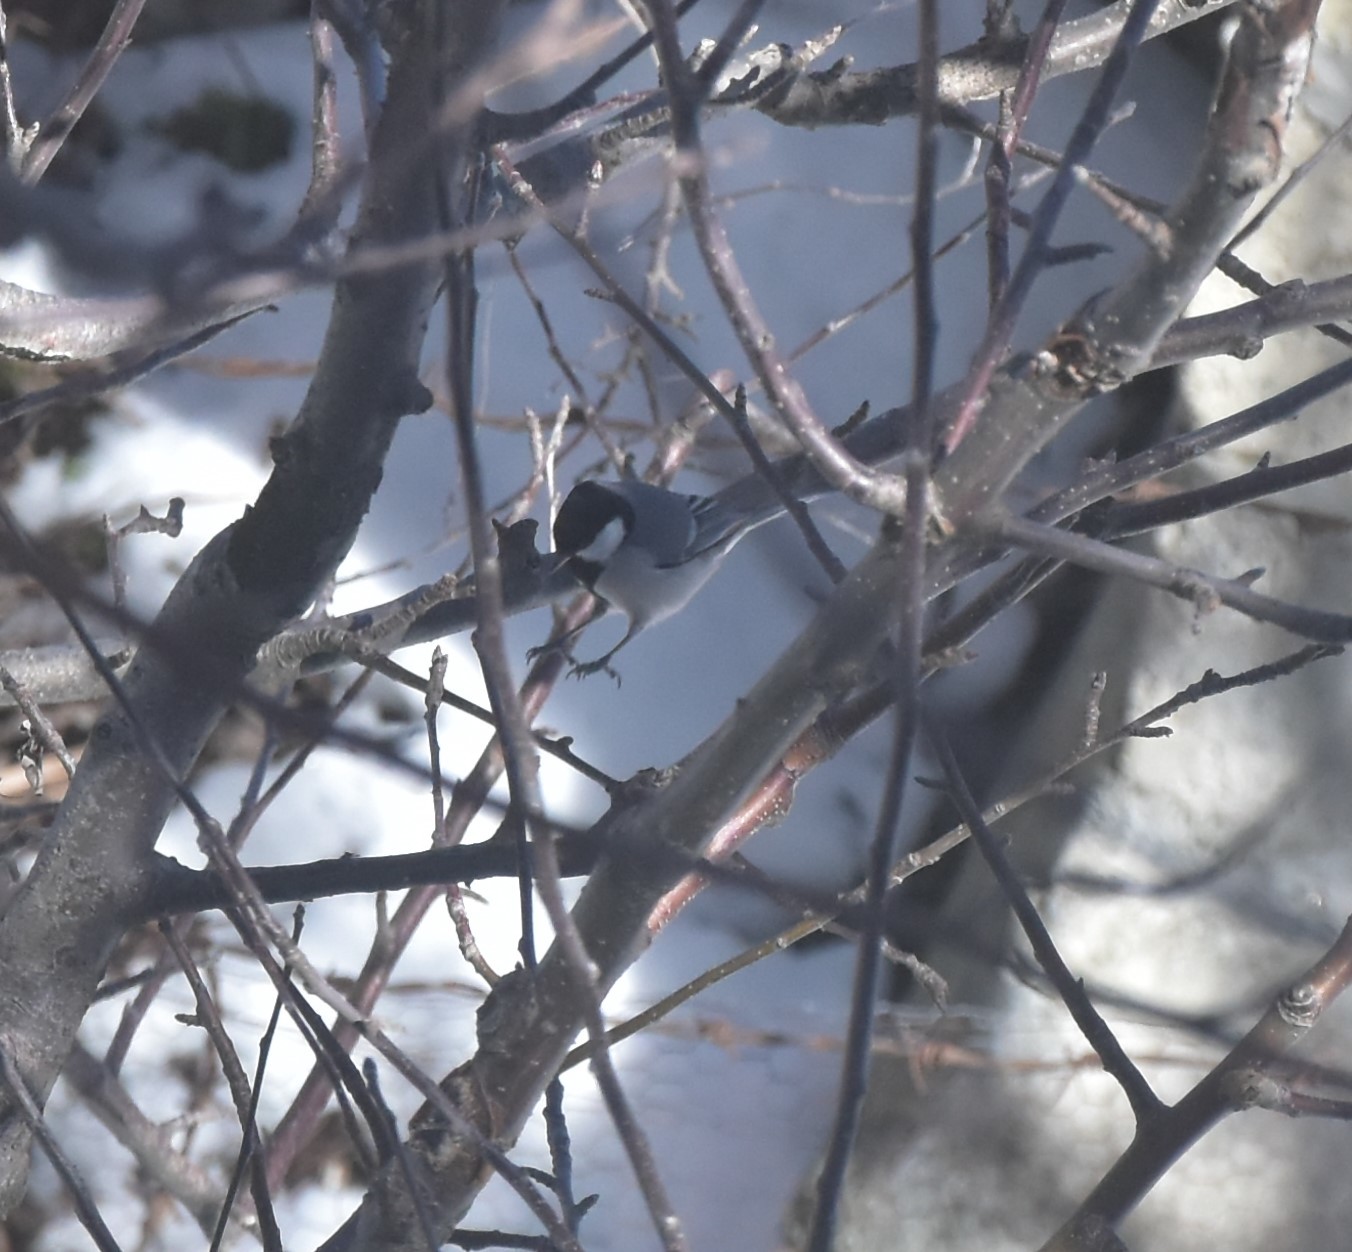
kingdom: Animalia
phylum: Chordata
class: Aves
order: Passeriformes
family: Paridae
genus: Parus
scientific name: Parus cinereus
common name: Cinereous tit
